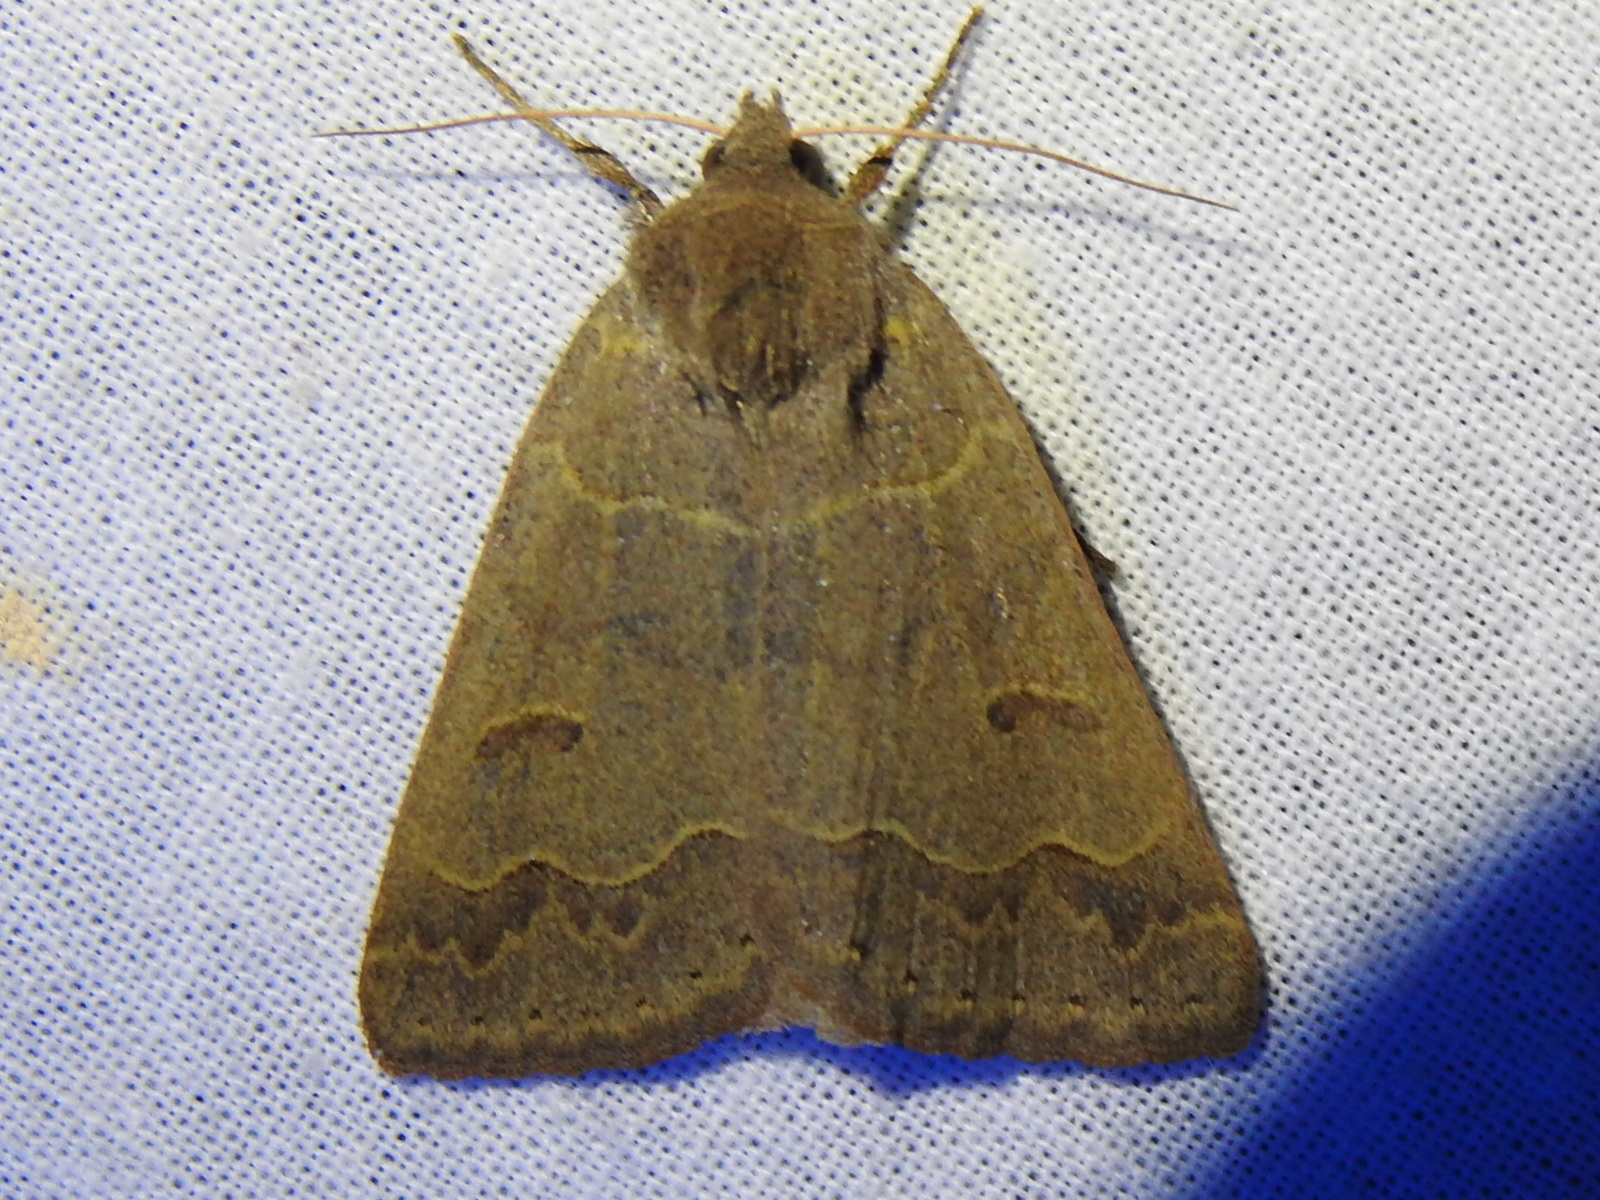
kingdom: Animalia
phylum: Arthropoda
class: Insecta
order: Lepidoptera
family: Erebidae
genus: Phoberia
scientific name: Phoberia atomaris
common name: Common oak moth
